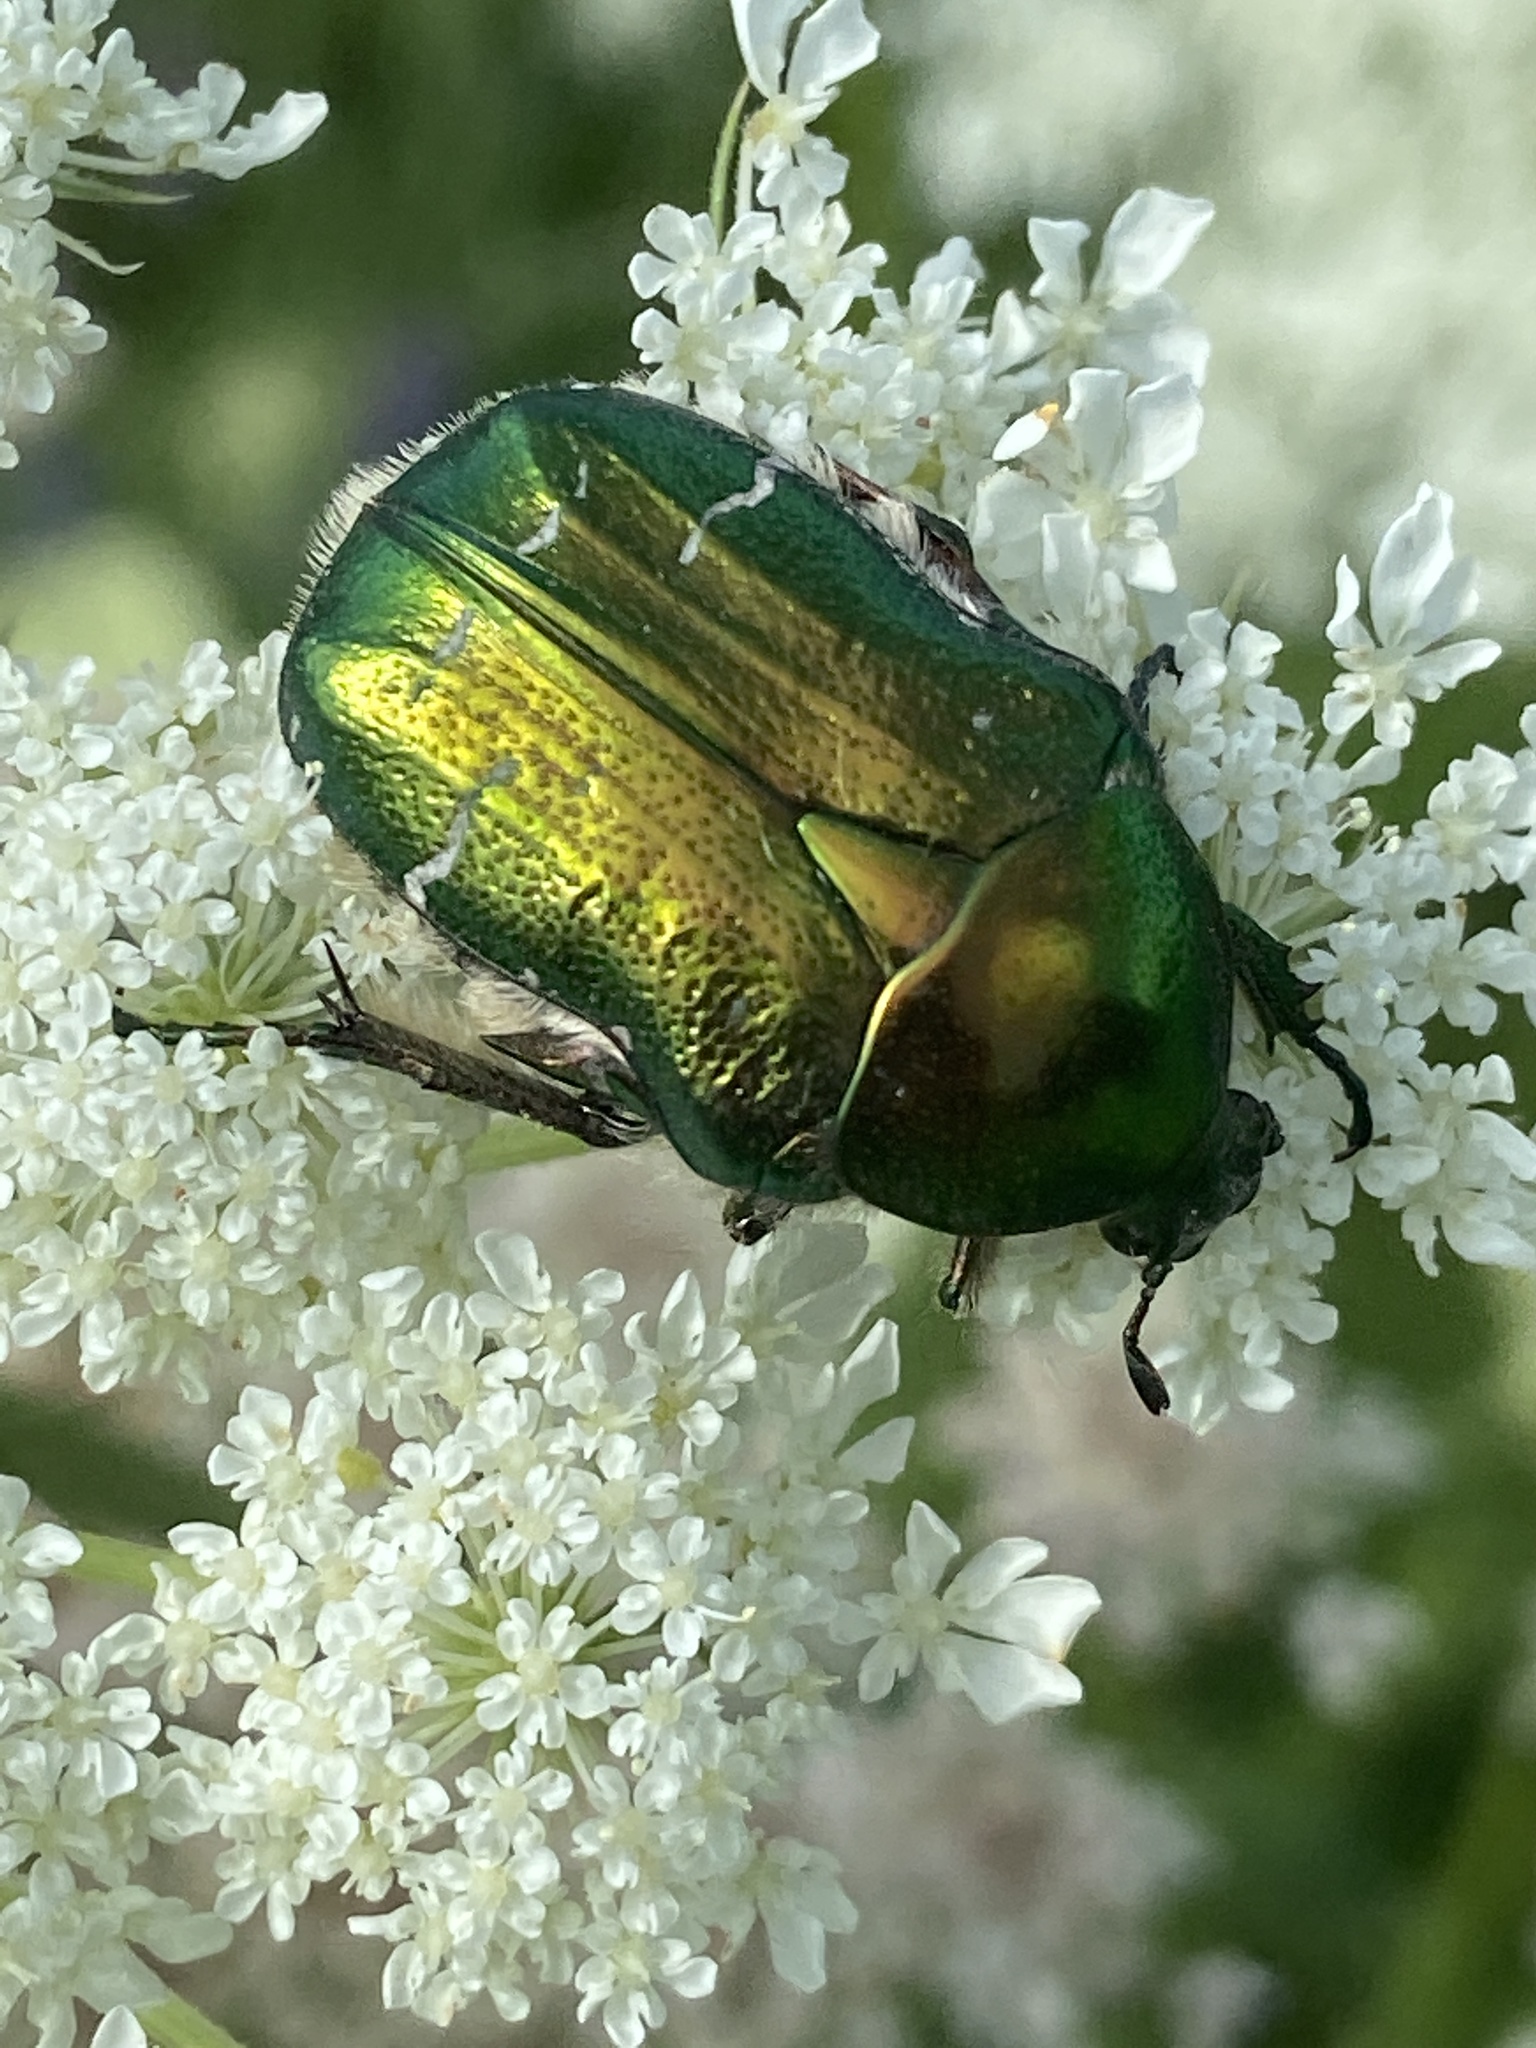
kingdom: Animalia
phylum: Arthropoda
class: Insecta
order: Coleoptera
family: Scarabaeidae
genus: Cetonia
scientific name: Cetonia aurata
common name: Rose chafer
